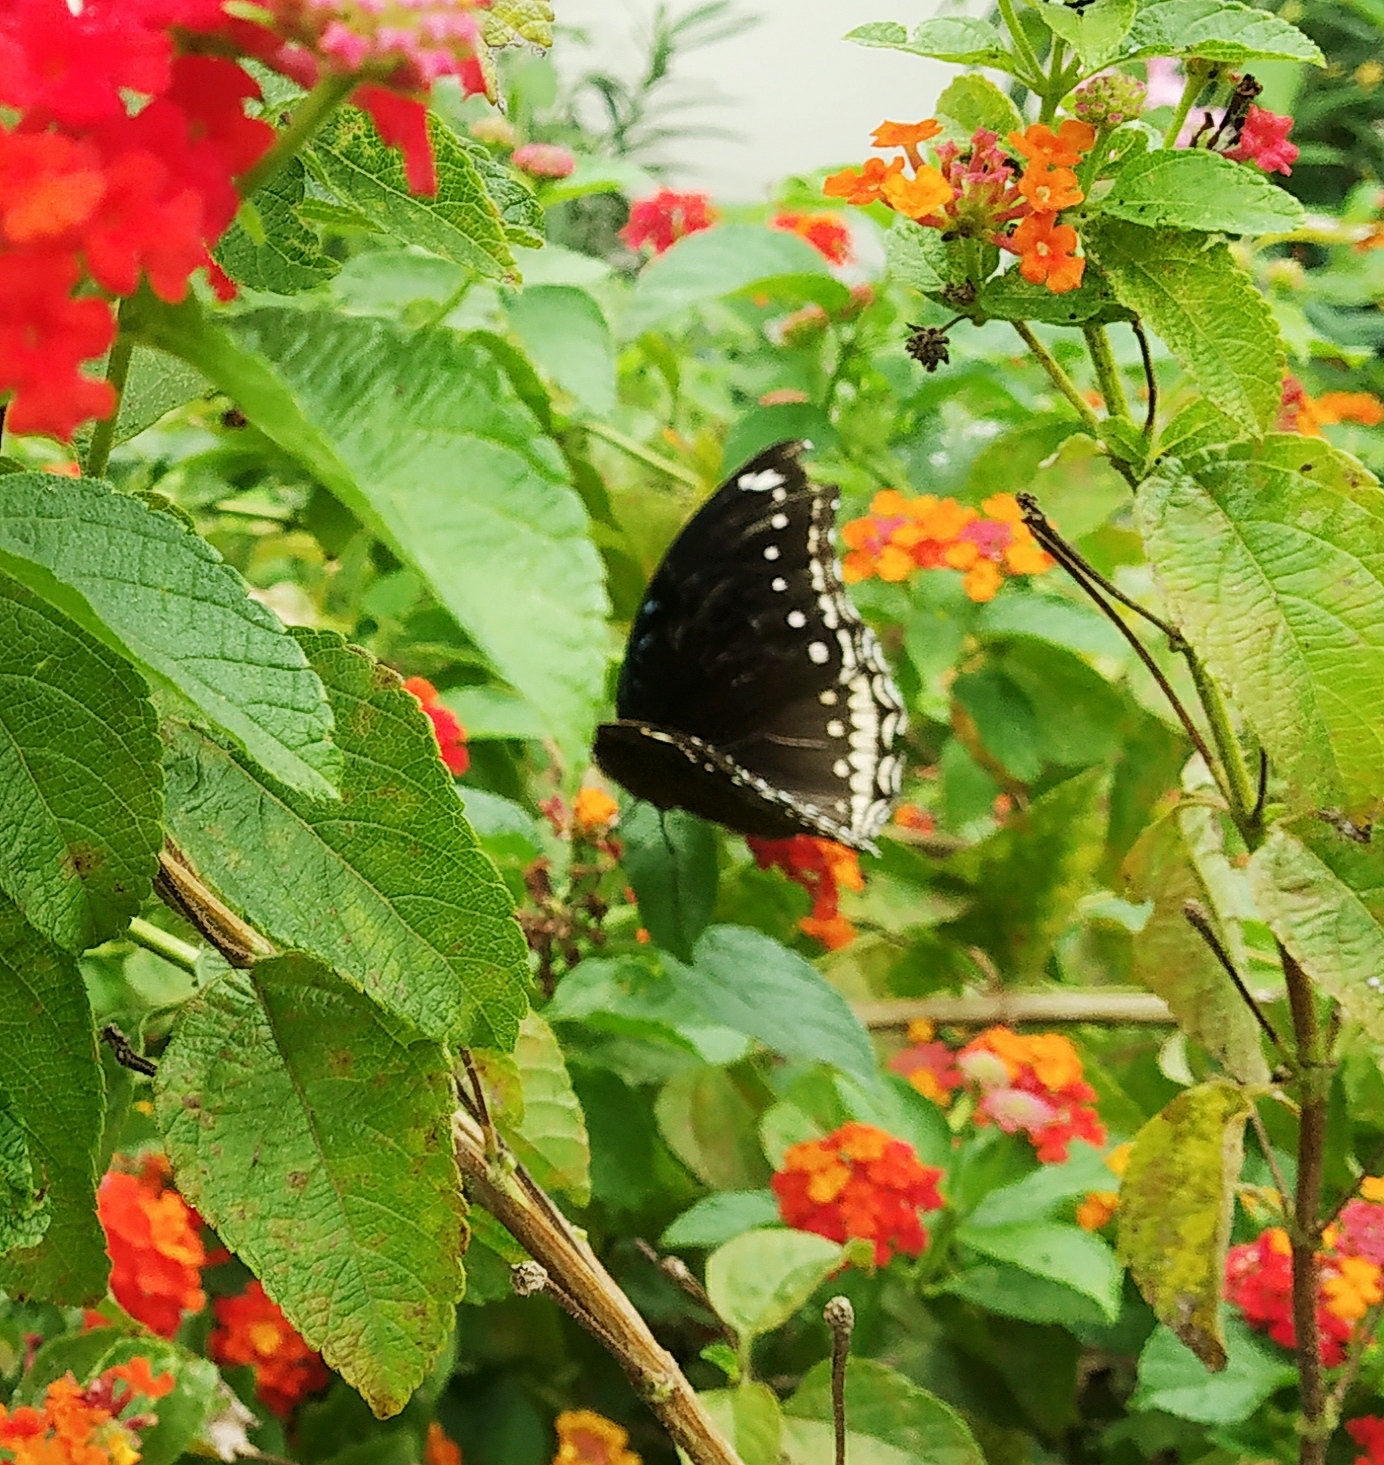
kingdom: Animalia
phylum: Arthropoda
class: Insecta
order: Lepidoptera
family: Nymphalidae
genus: Hypolimnas
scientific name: Hypolimnas bolina
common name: Great eggfly
